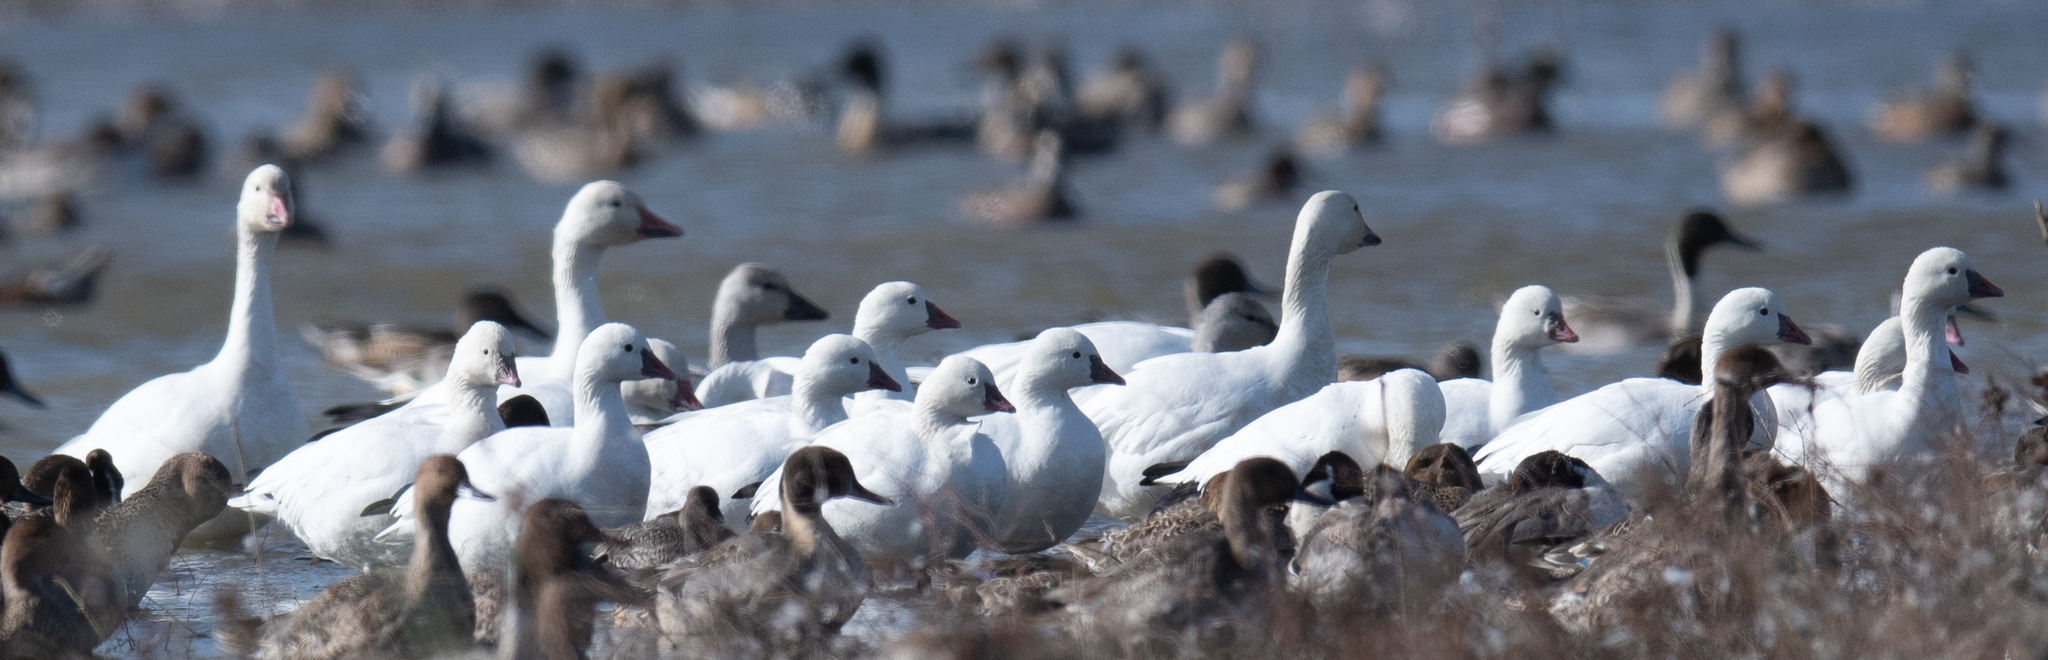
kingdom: Animalia
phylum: Chordata
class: Aves
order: Anseriformes
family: Anatidae
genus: Anser
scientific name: Anser caerulescens
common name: Snow goose
